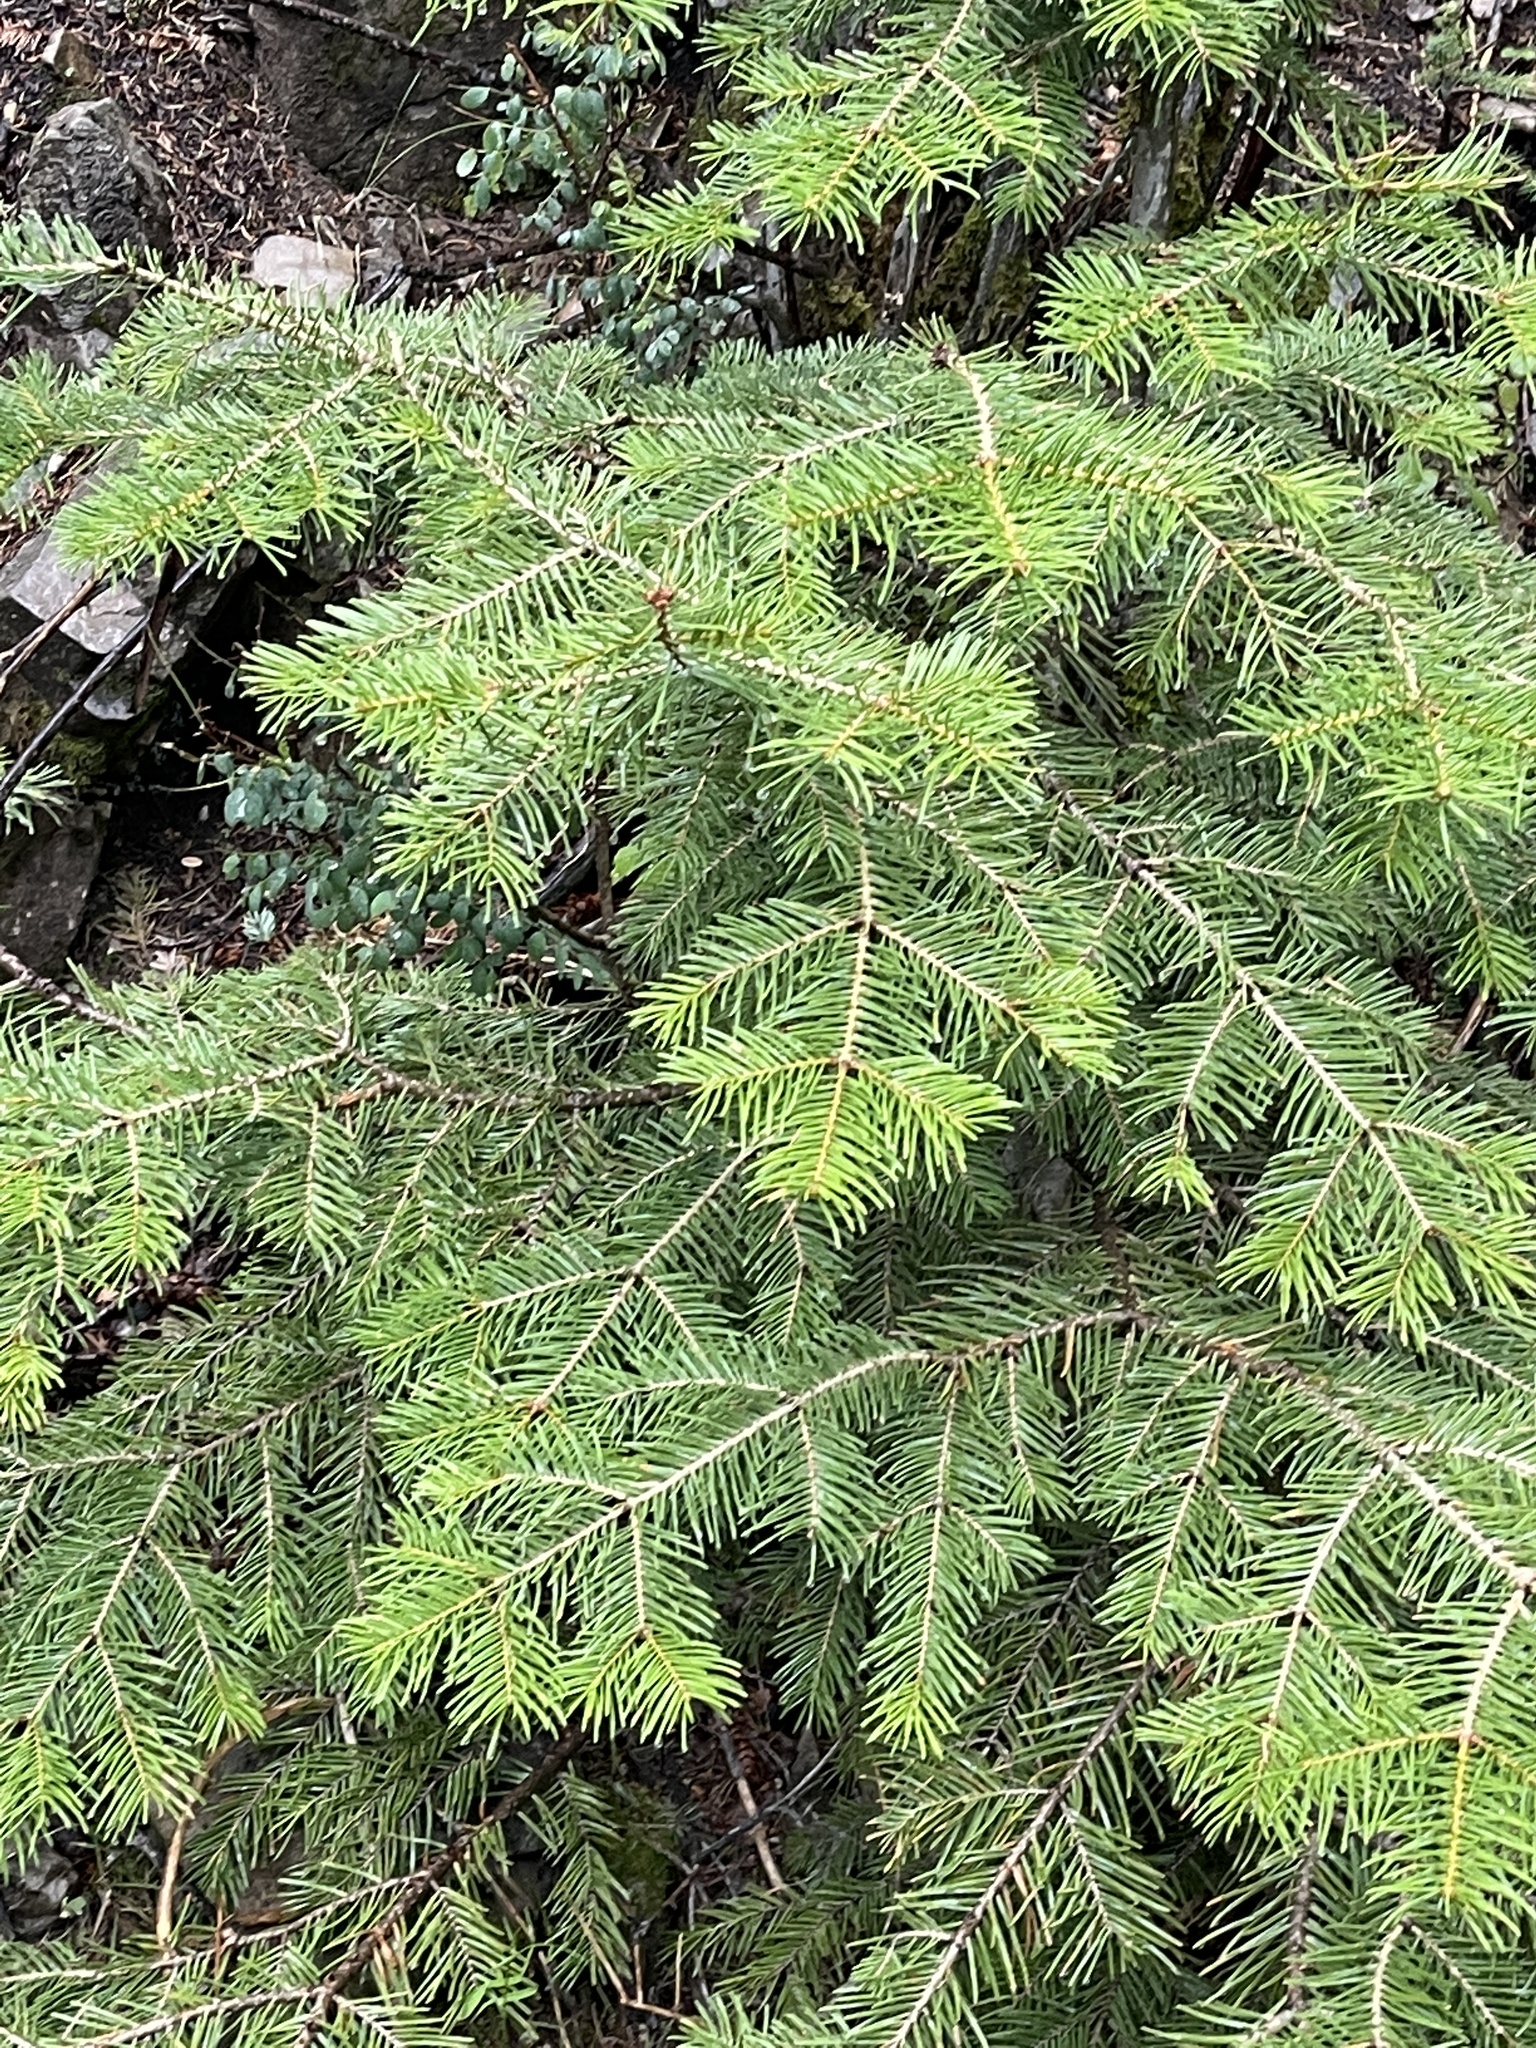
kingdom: Plantae
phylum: Tracheophyta
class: Pinopsida
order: Pinales
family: Pinaceae
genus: Abies
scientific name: Abies concolor
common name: Colorado fir
